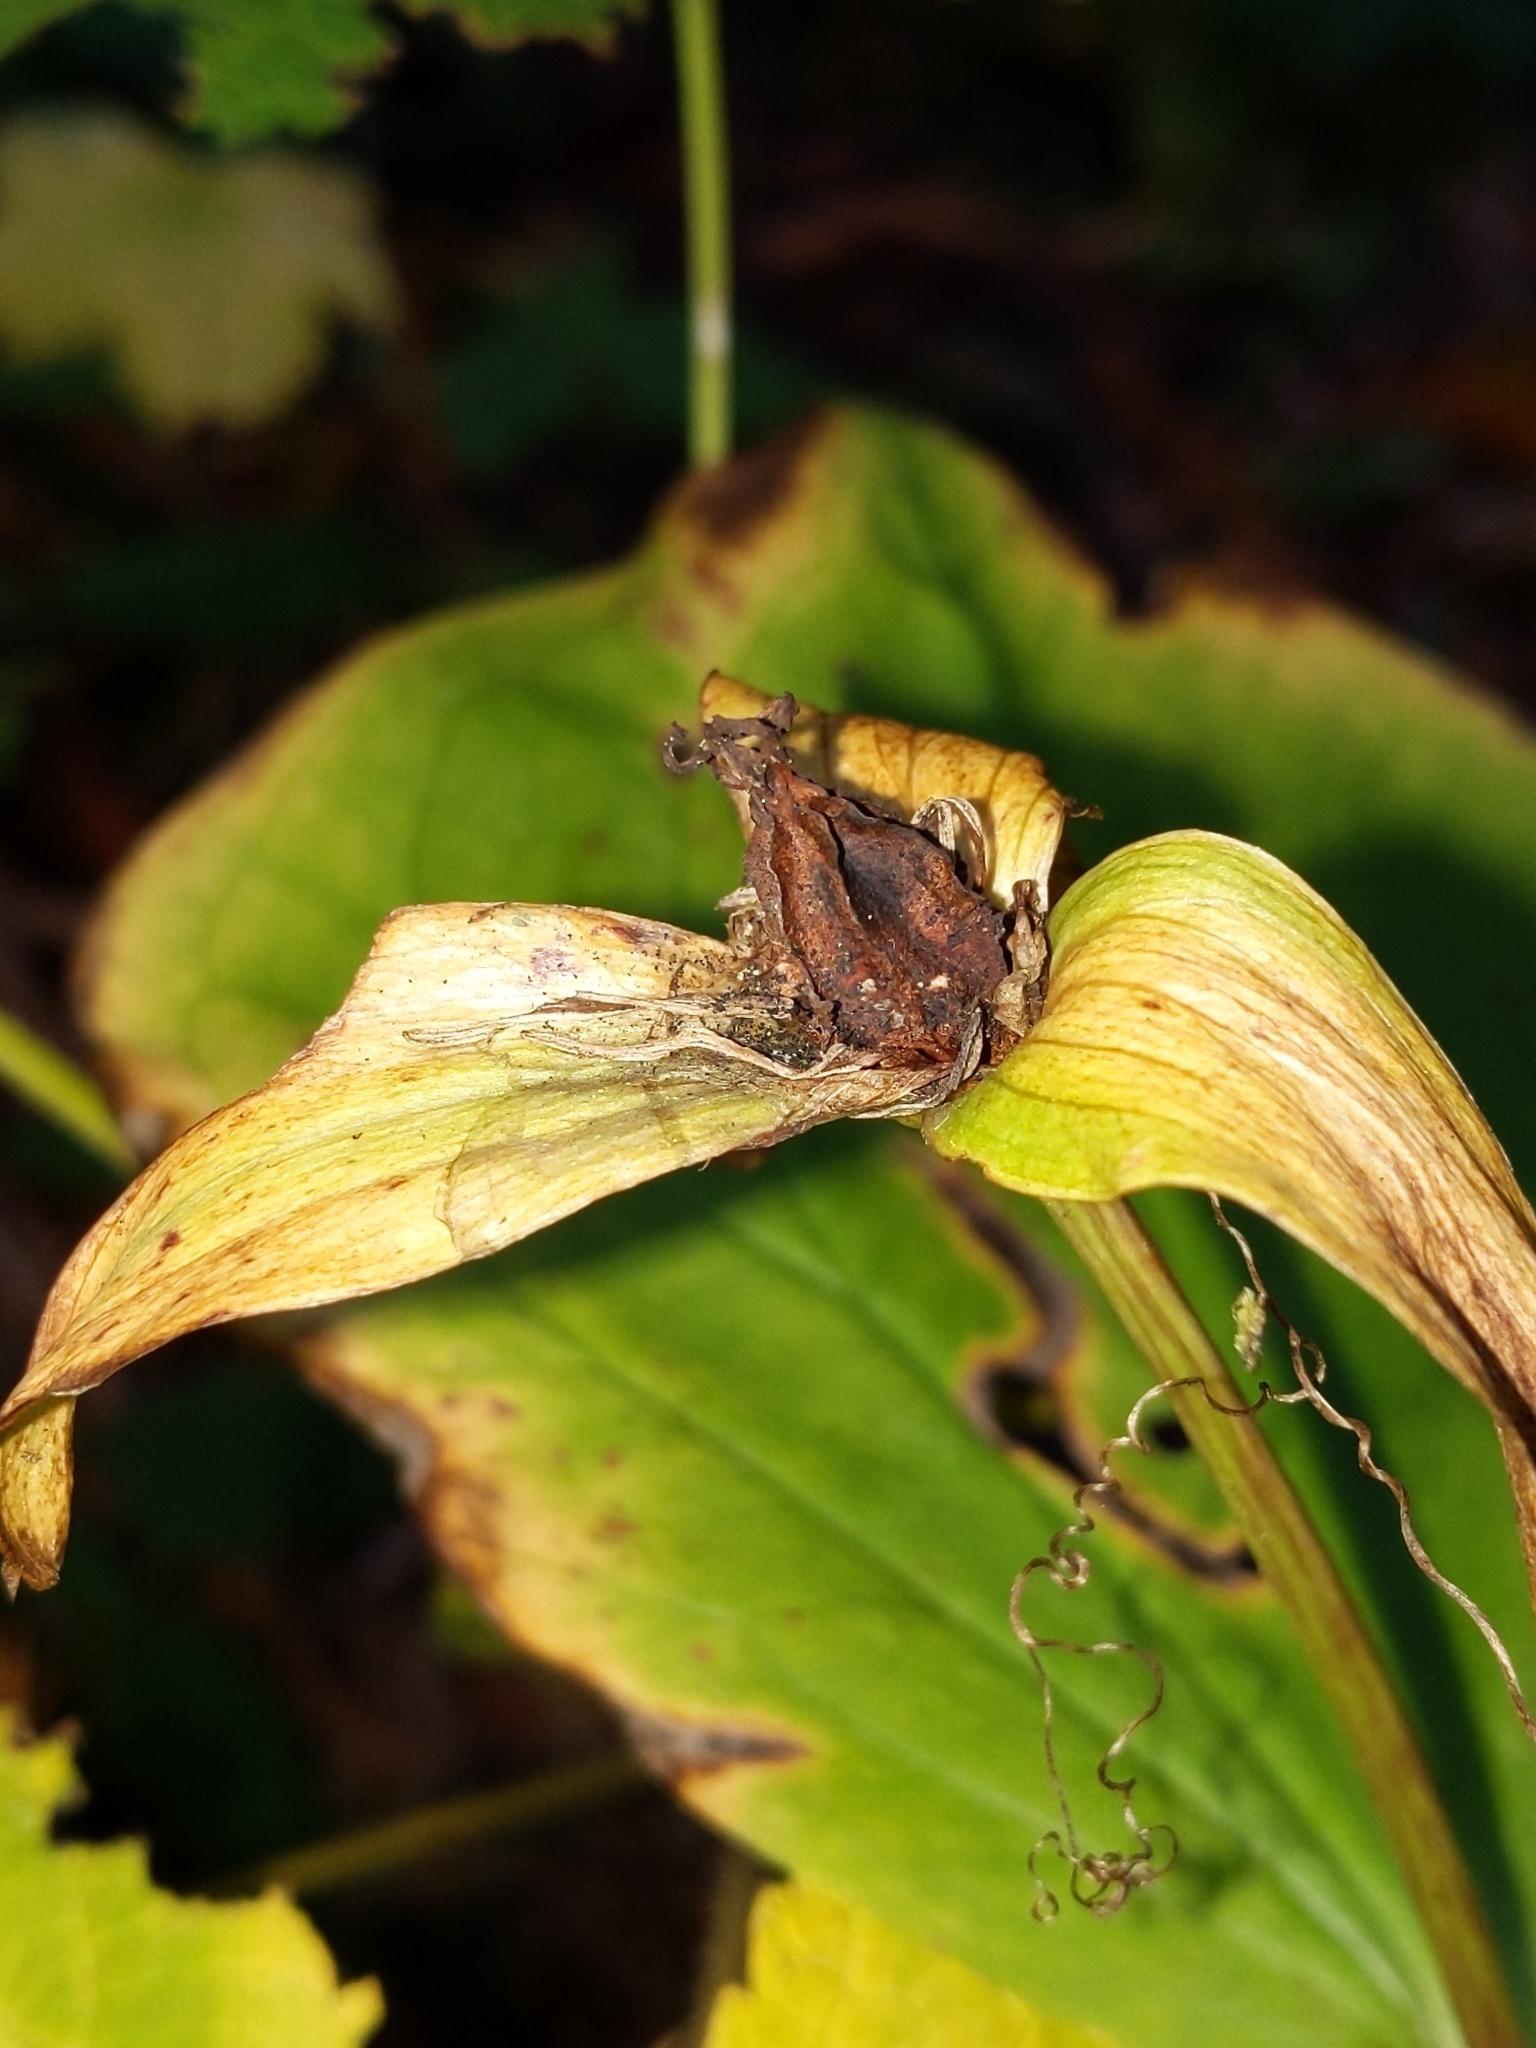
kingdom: Plantae
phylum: Tracheophyta
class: Liliopsida
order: Liliales
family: Melanthiaceae
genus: Trillium
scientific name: Trillium ovatum
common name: Pacific trillium
